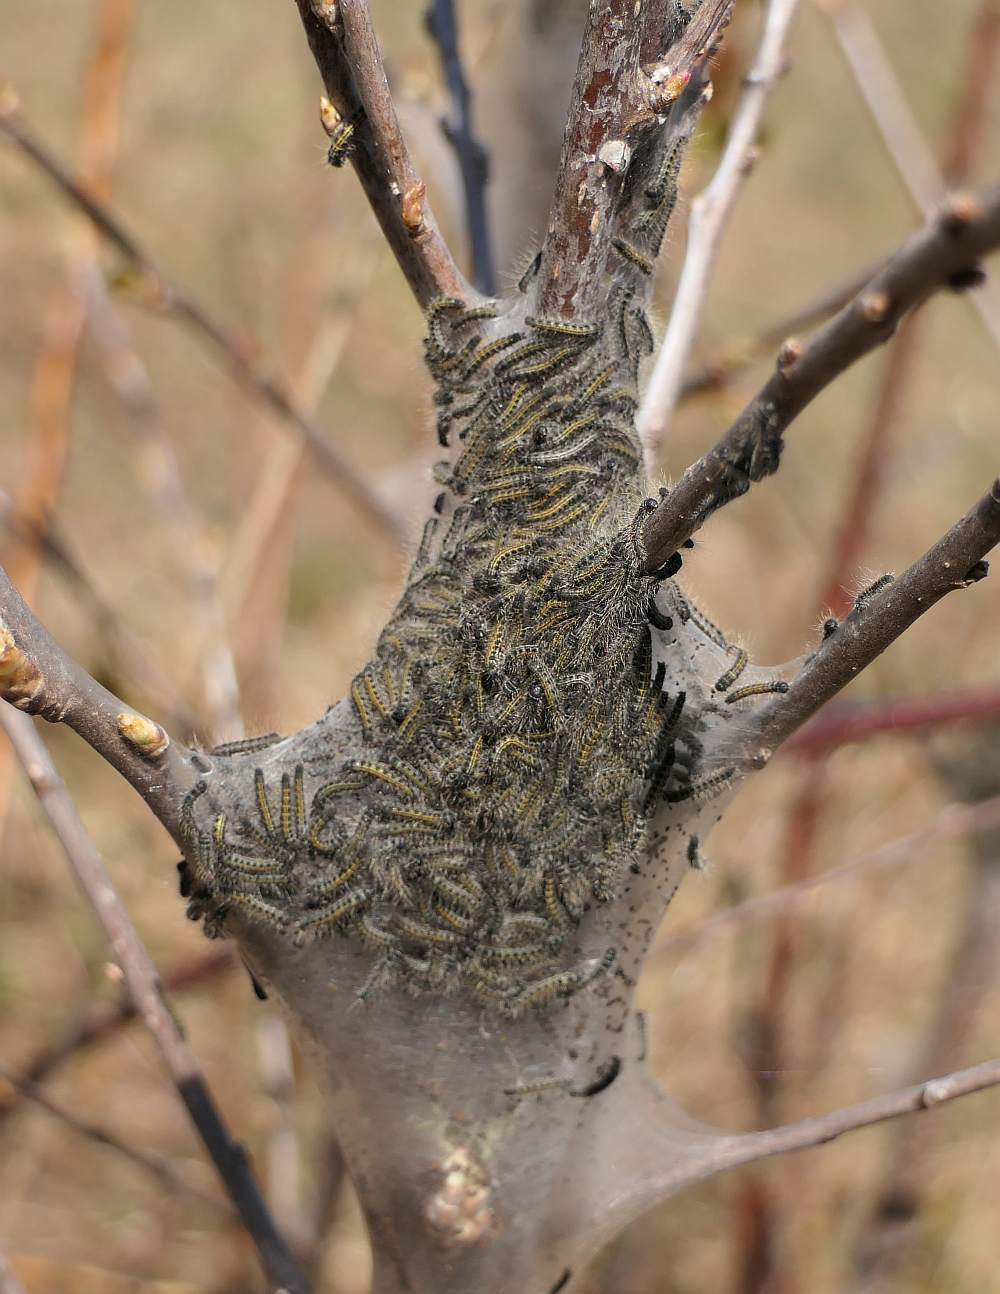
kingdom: Animalia
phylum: Arthropoda
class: Insecta
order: Lepidoptera
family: Lasiocampidae
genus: Malacosoma
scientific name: Malacosoma americana
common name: Eastern tent caterpillar moth
